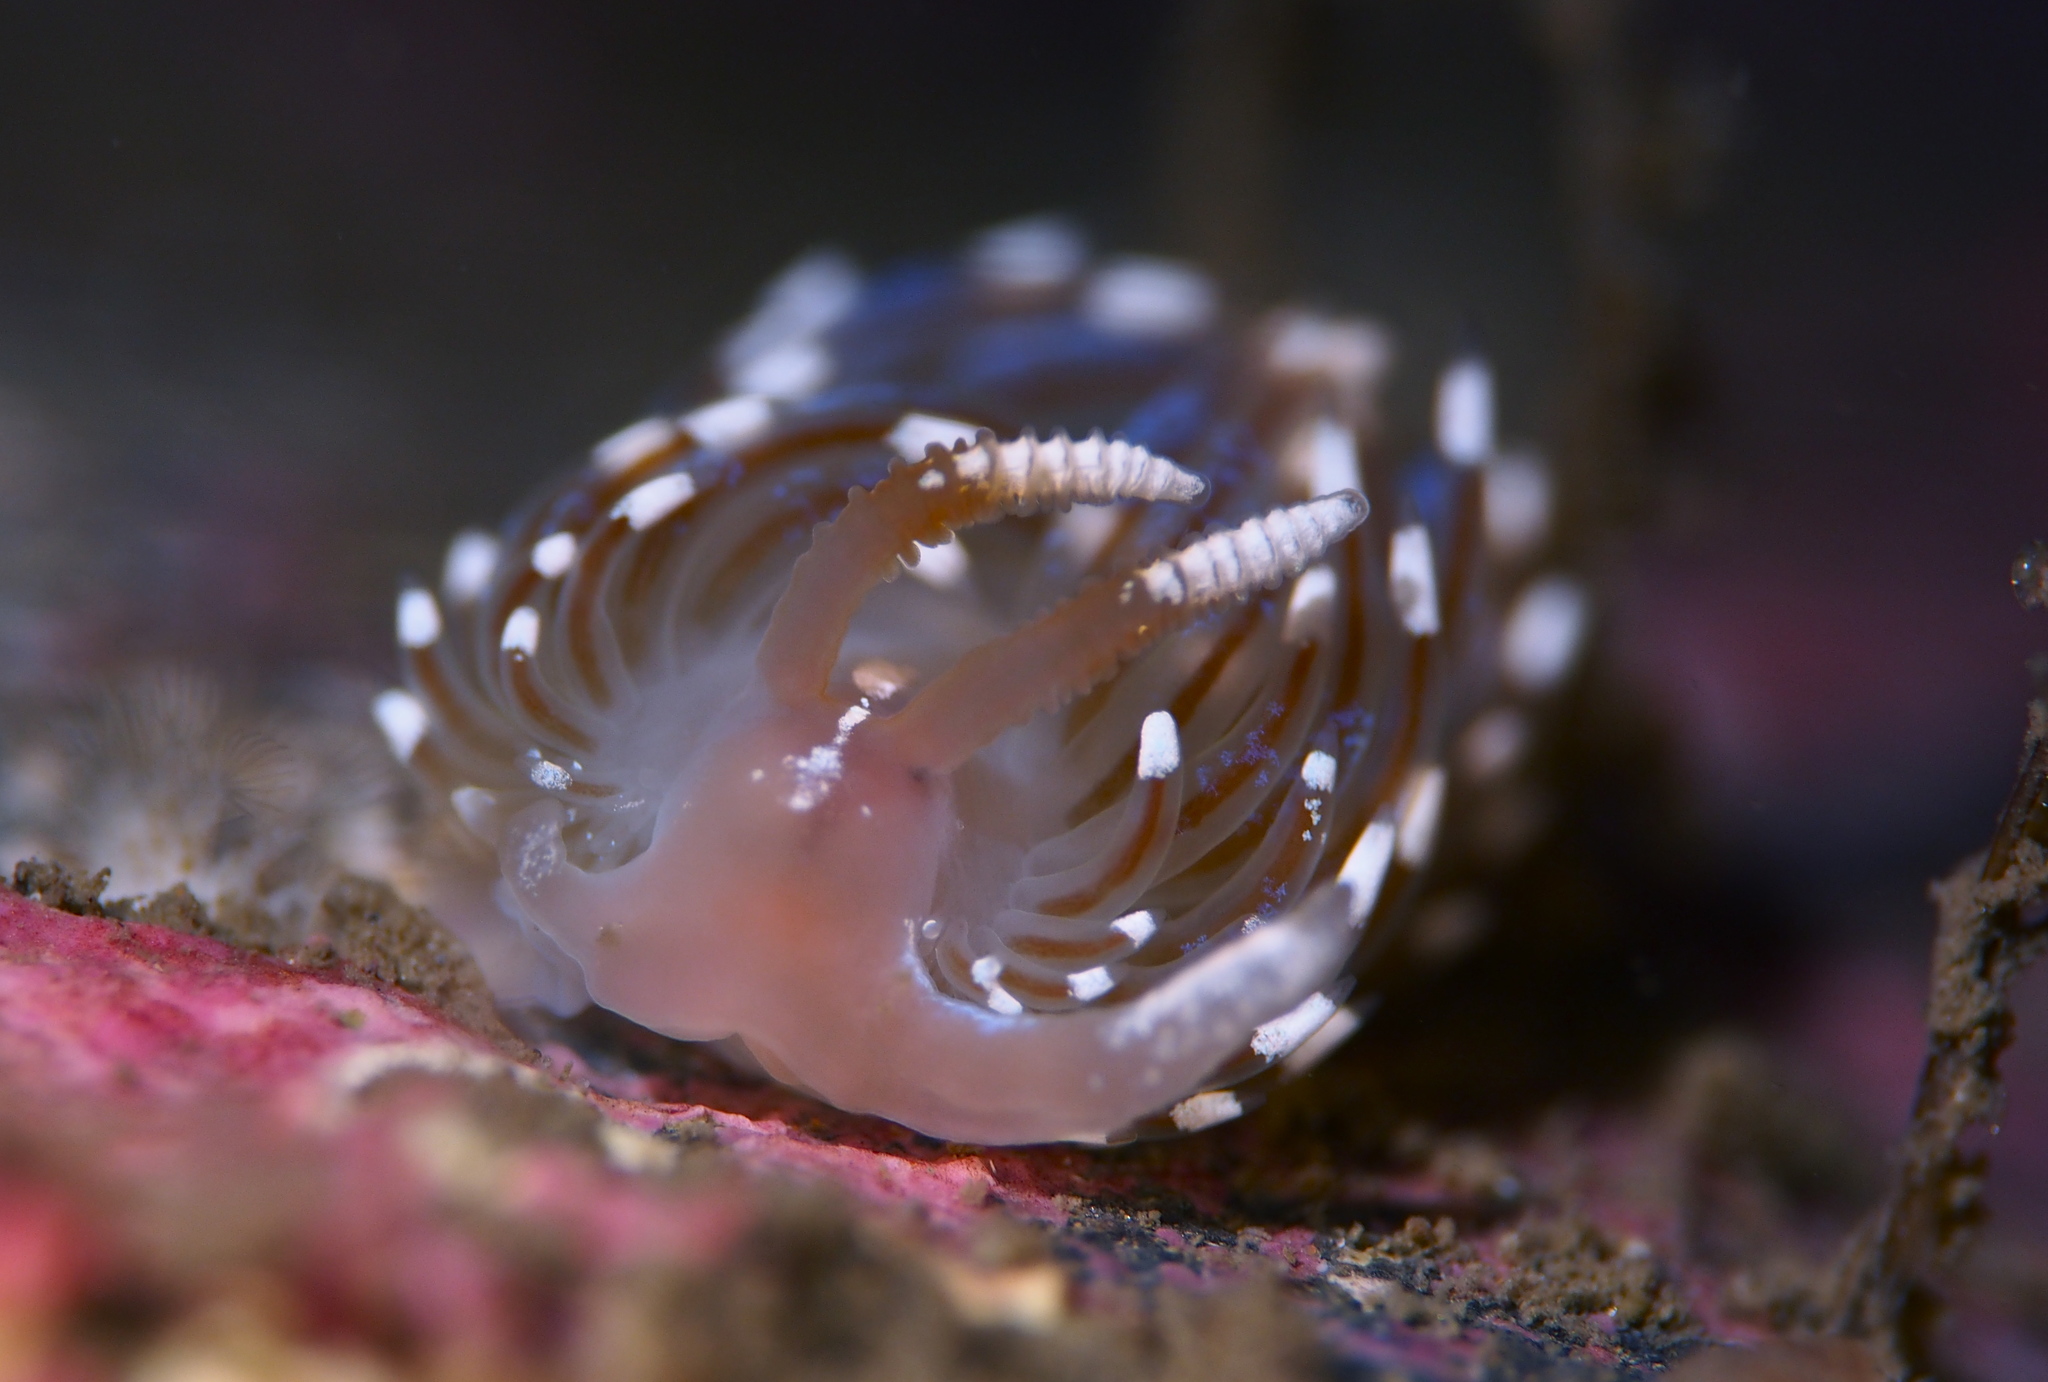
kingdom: Animalia
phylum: Mollusca
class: Gastropoda
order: Nudibranchia
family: Facelinidae
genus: Facelina
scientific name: Facelina auriculata
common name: Slender facelina
